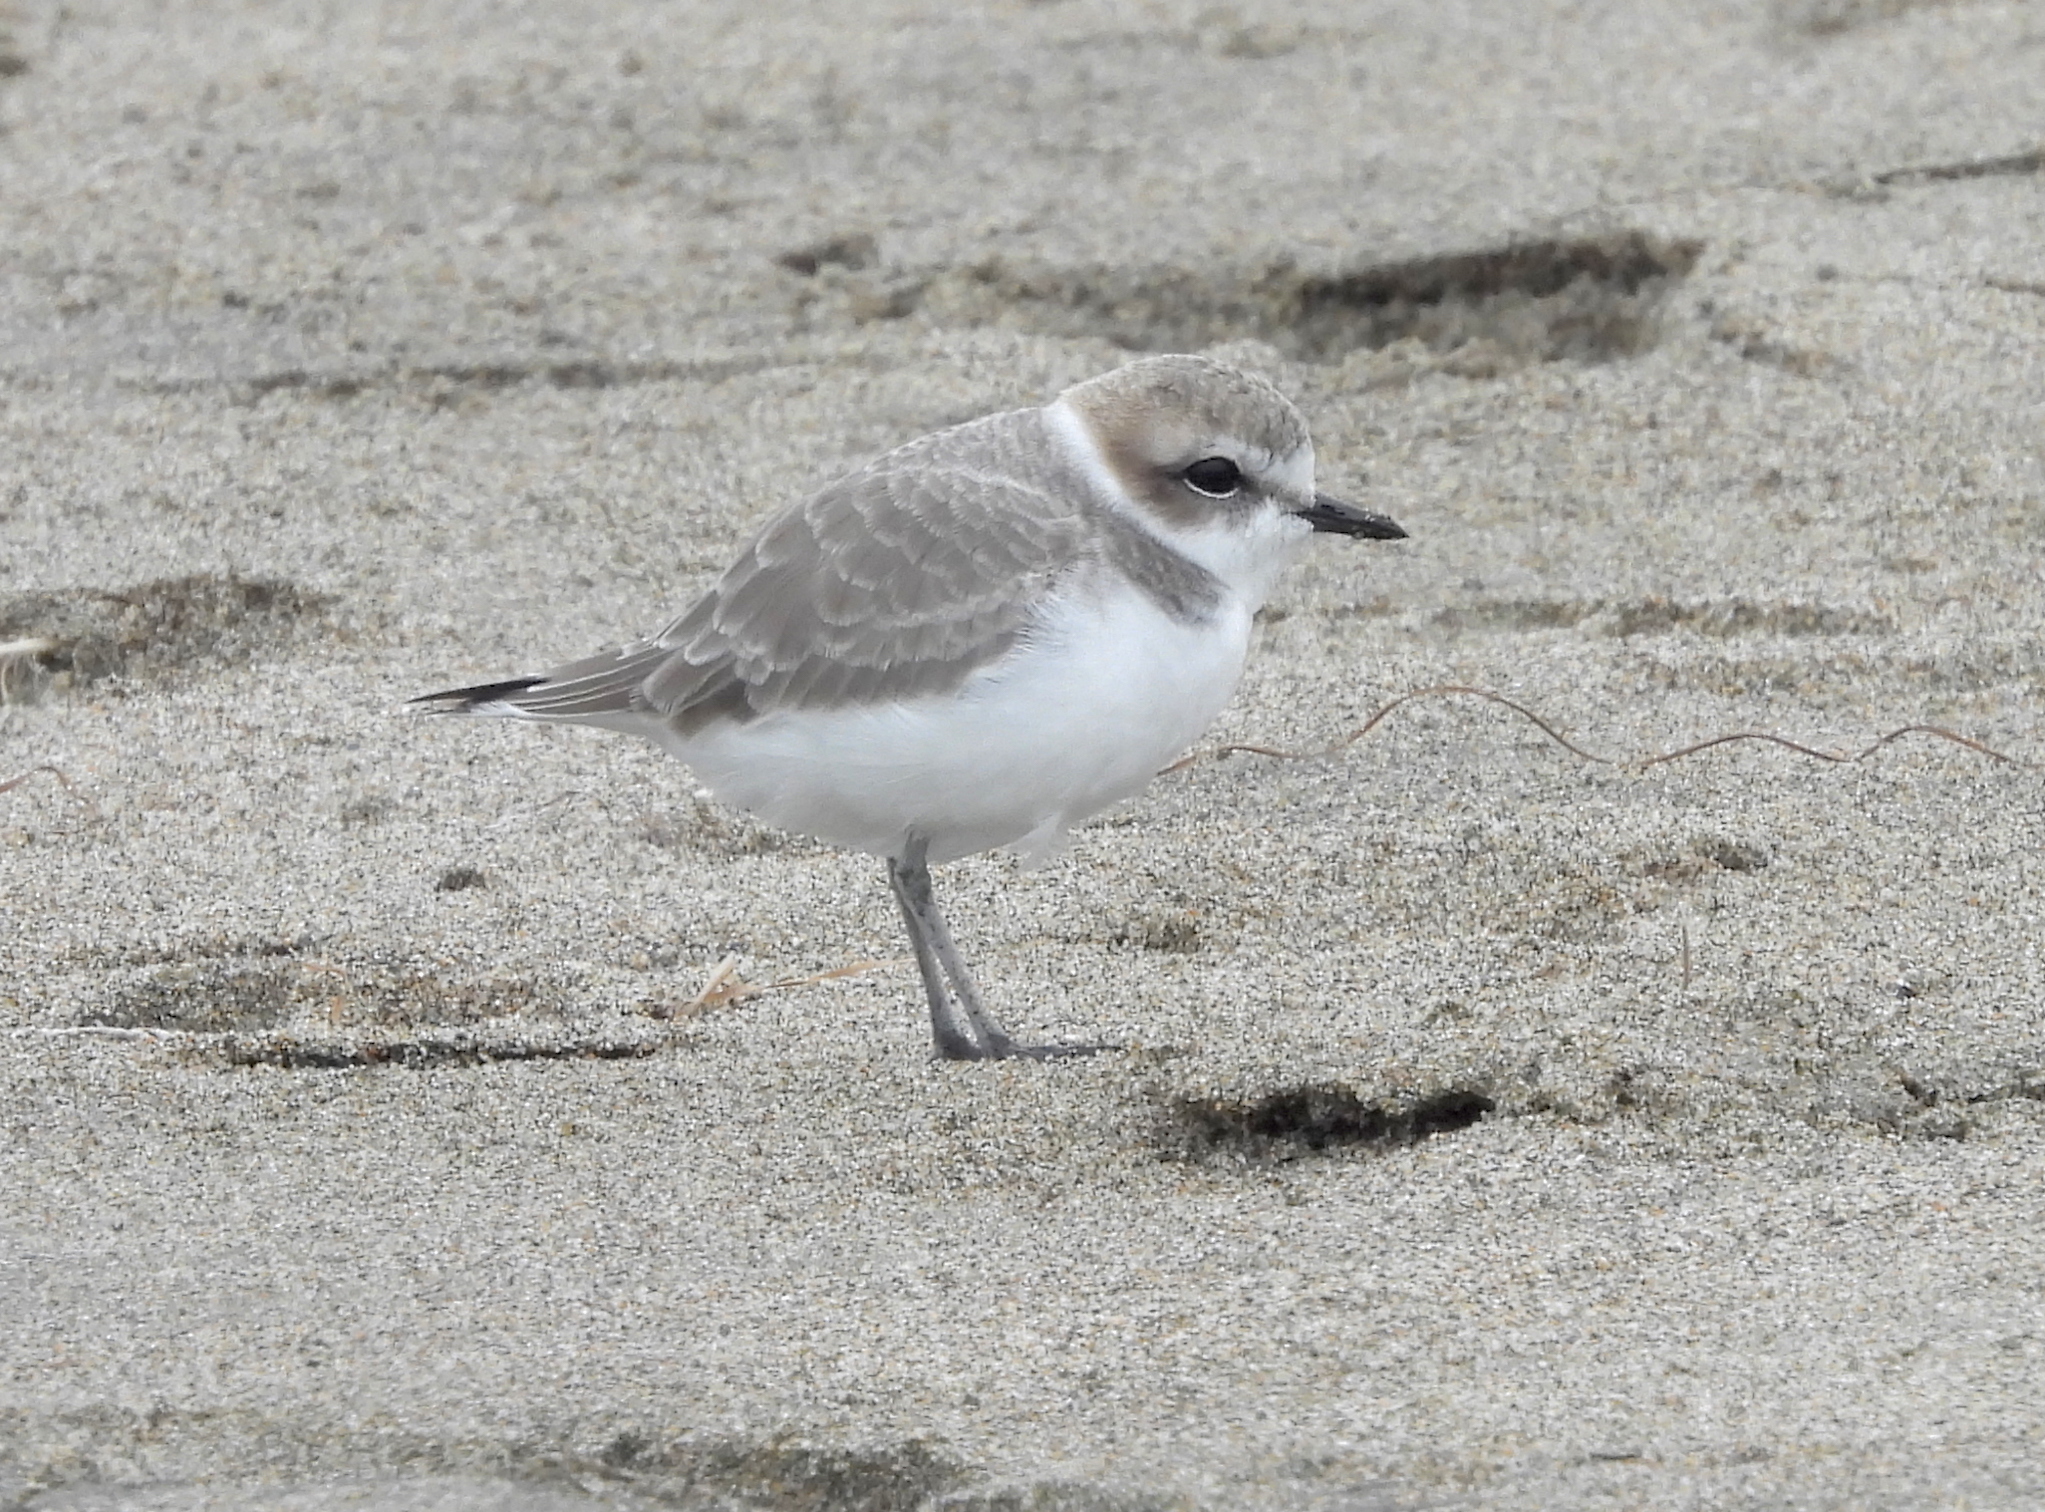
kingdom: Animalia
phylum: Chordata
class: Aves
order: Charadriiformes
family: Charadriidae
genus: Anarhynchus
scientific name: Anarhynchus
